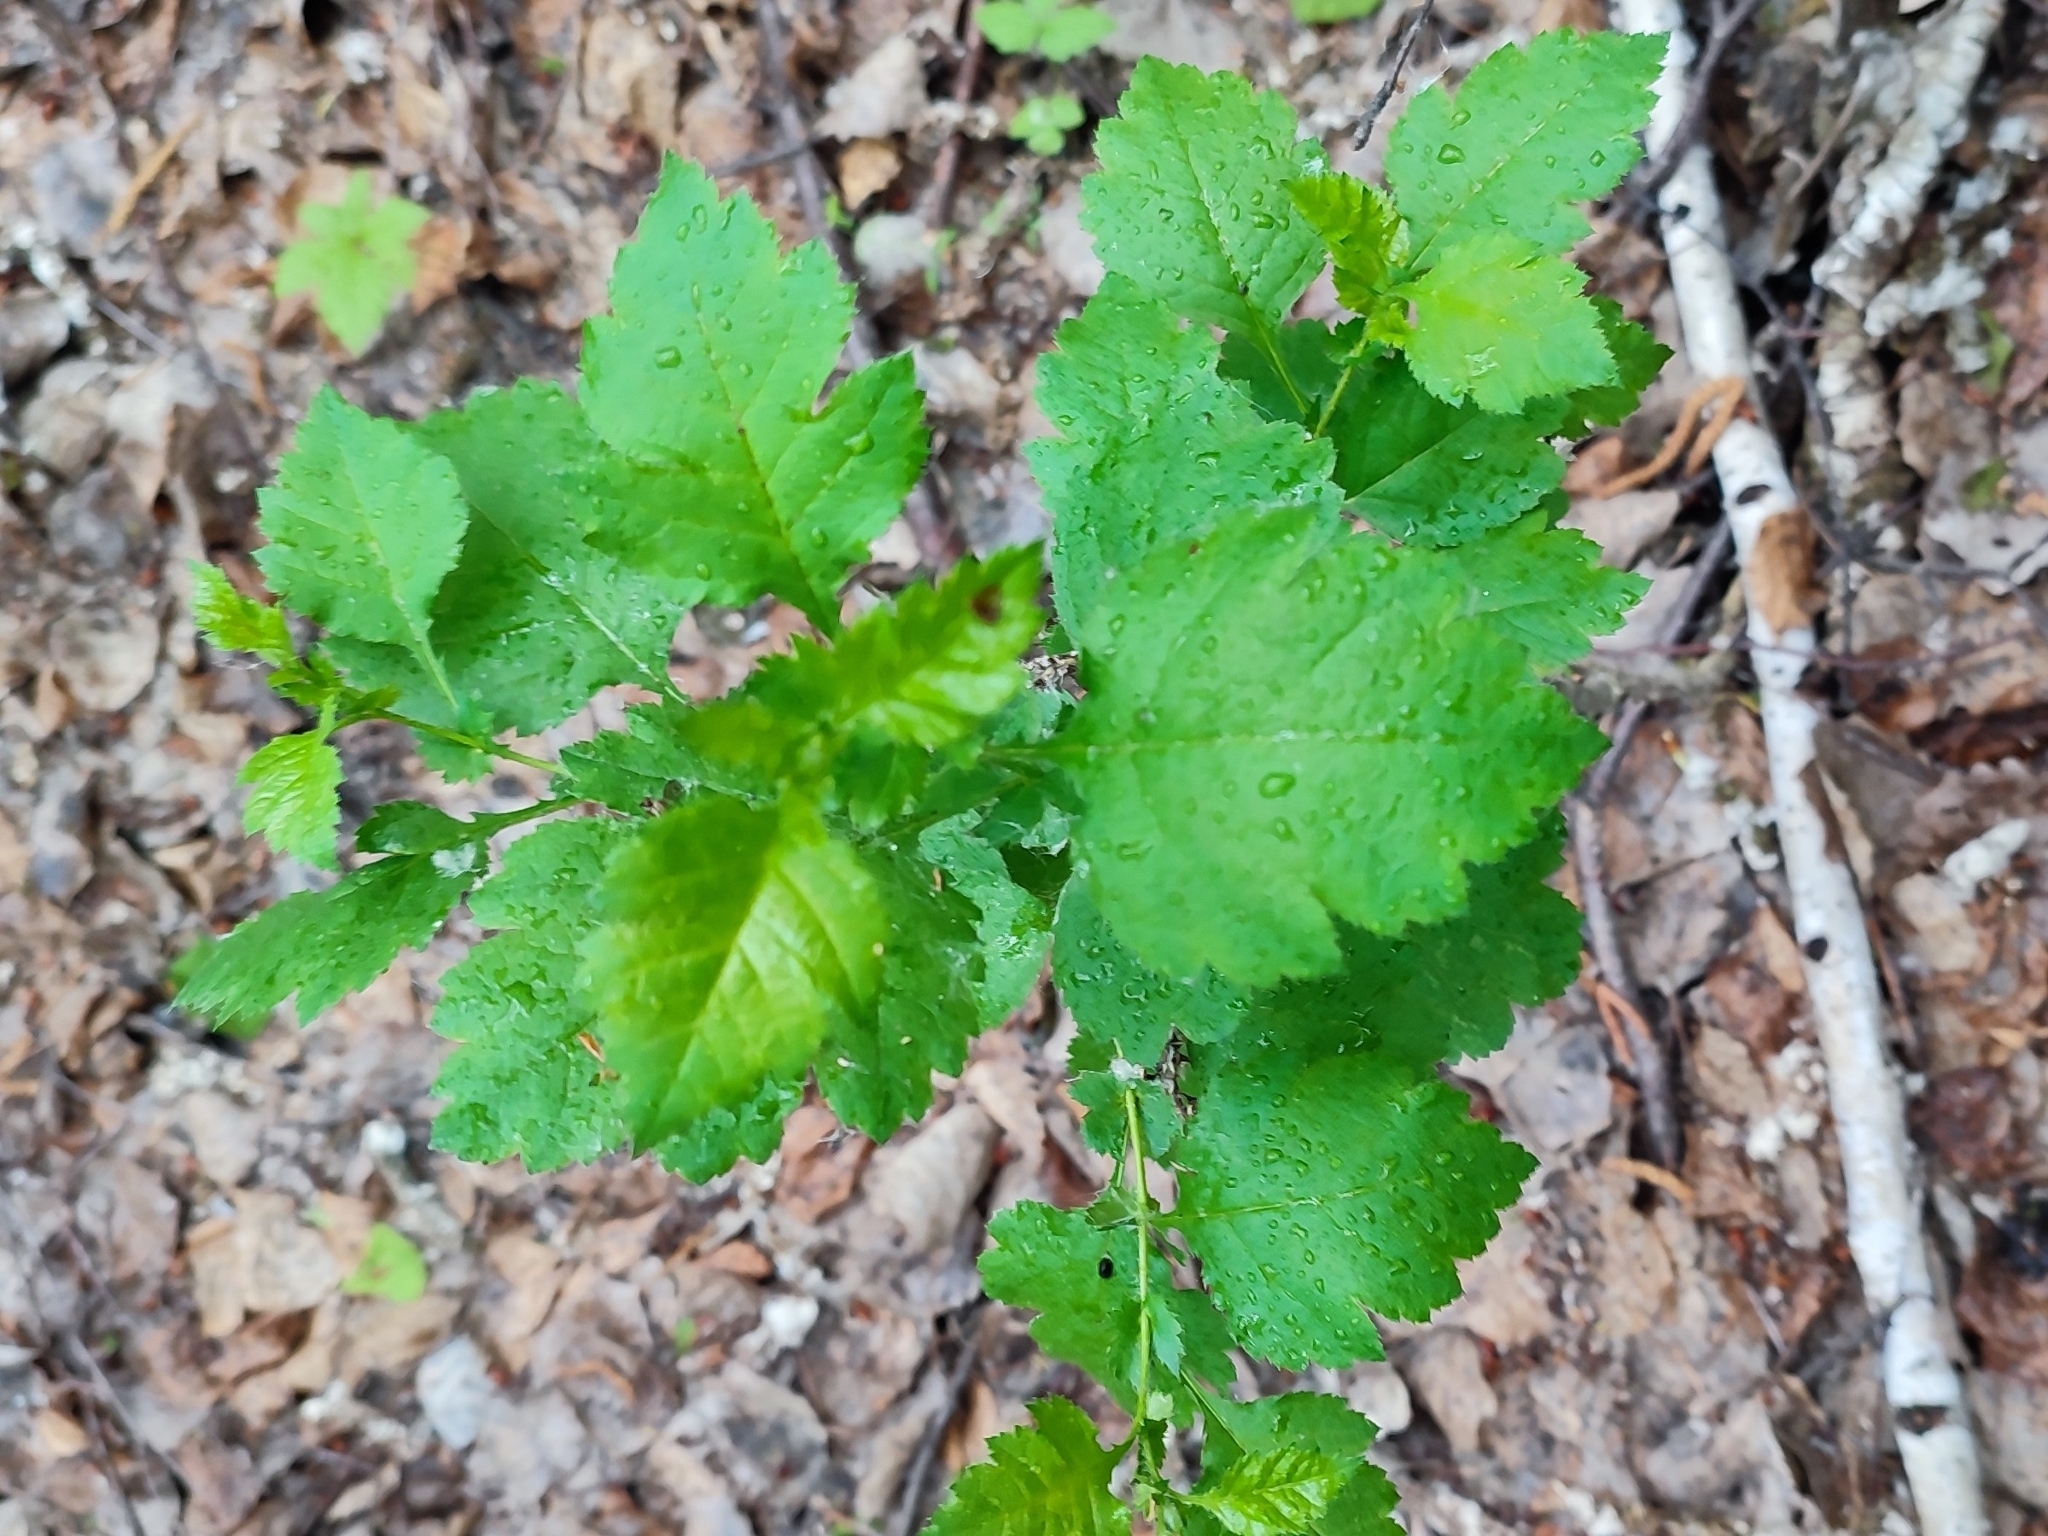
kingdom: Plantae
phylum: Tracheophyta
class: Magnoliopsida
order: Rosales
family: Rosaceae
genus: Crataegus
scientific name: Crataegus sanguinea
